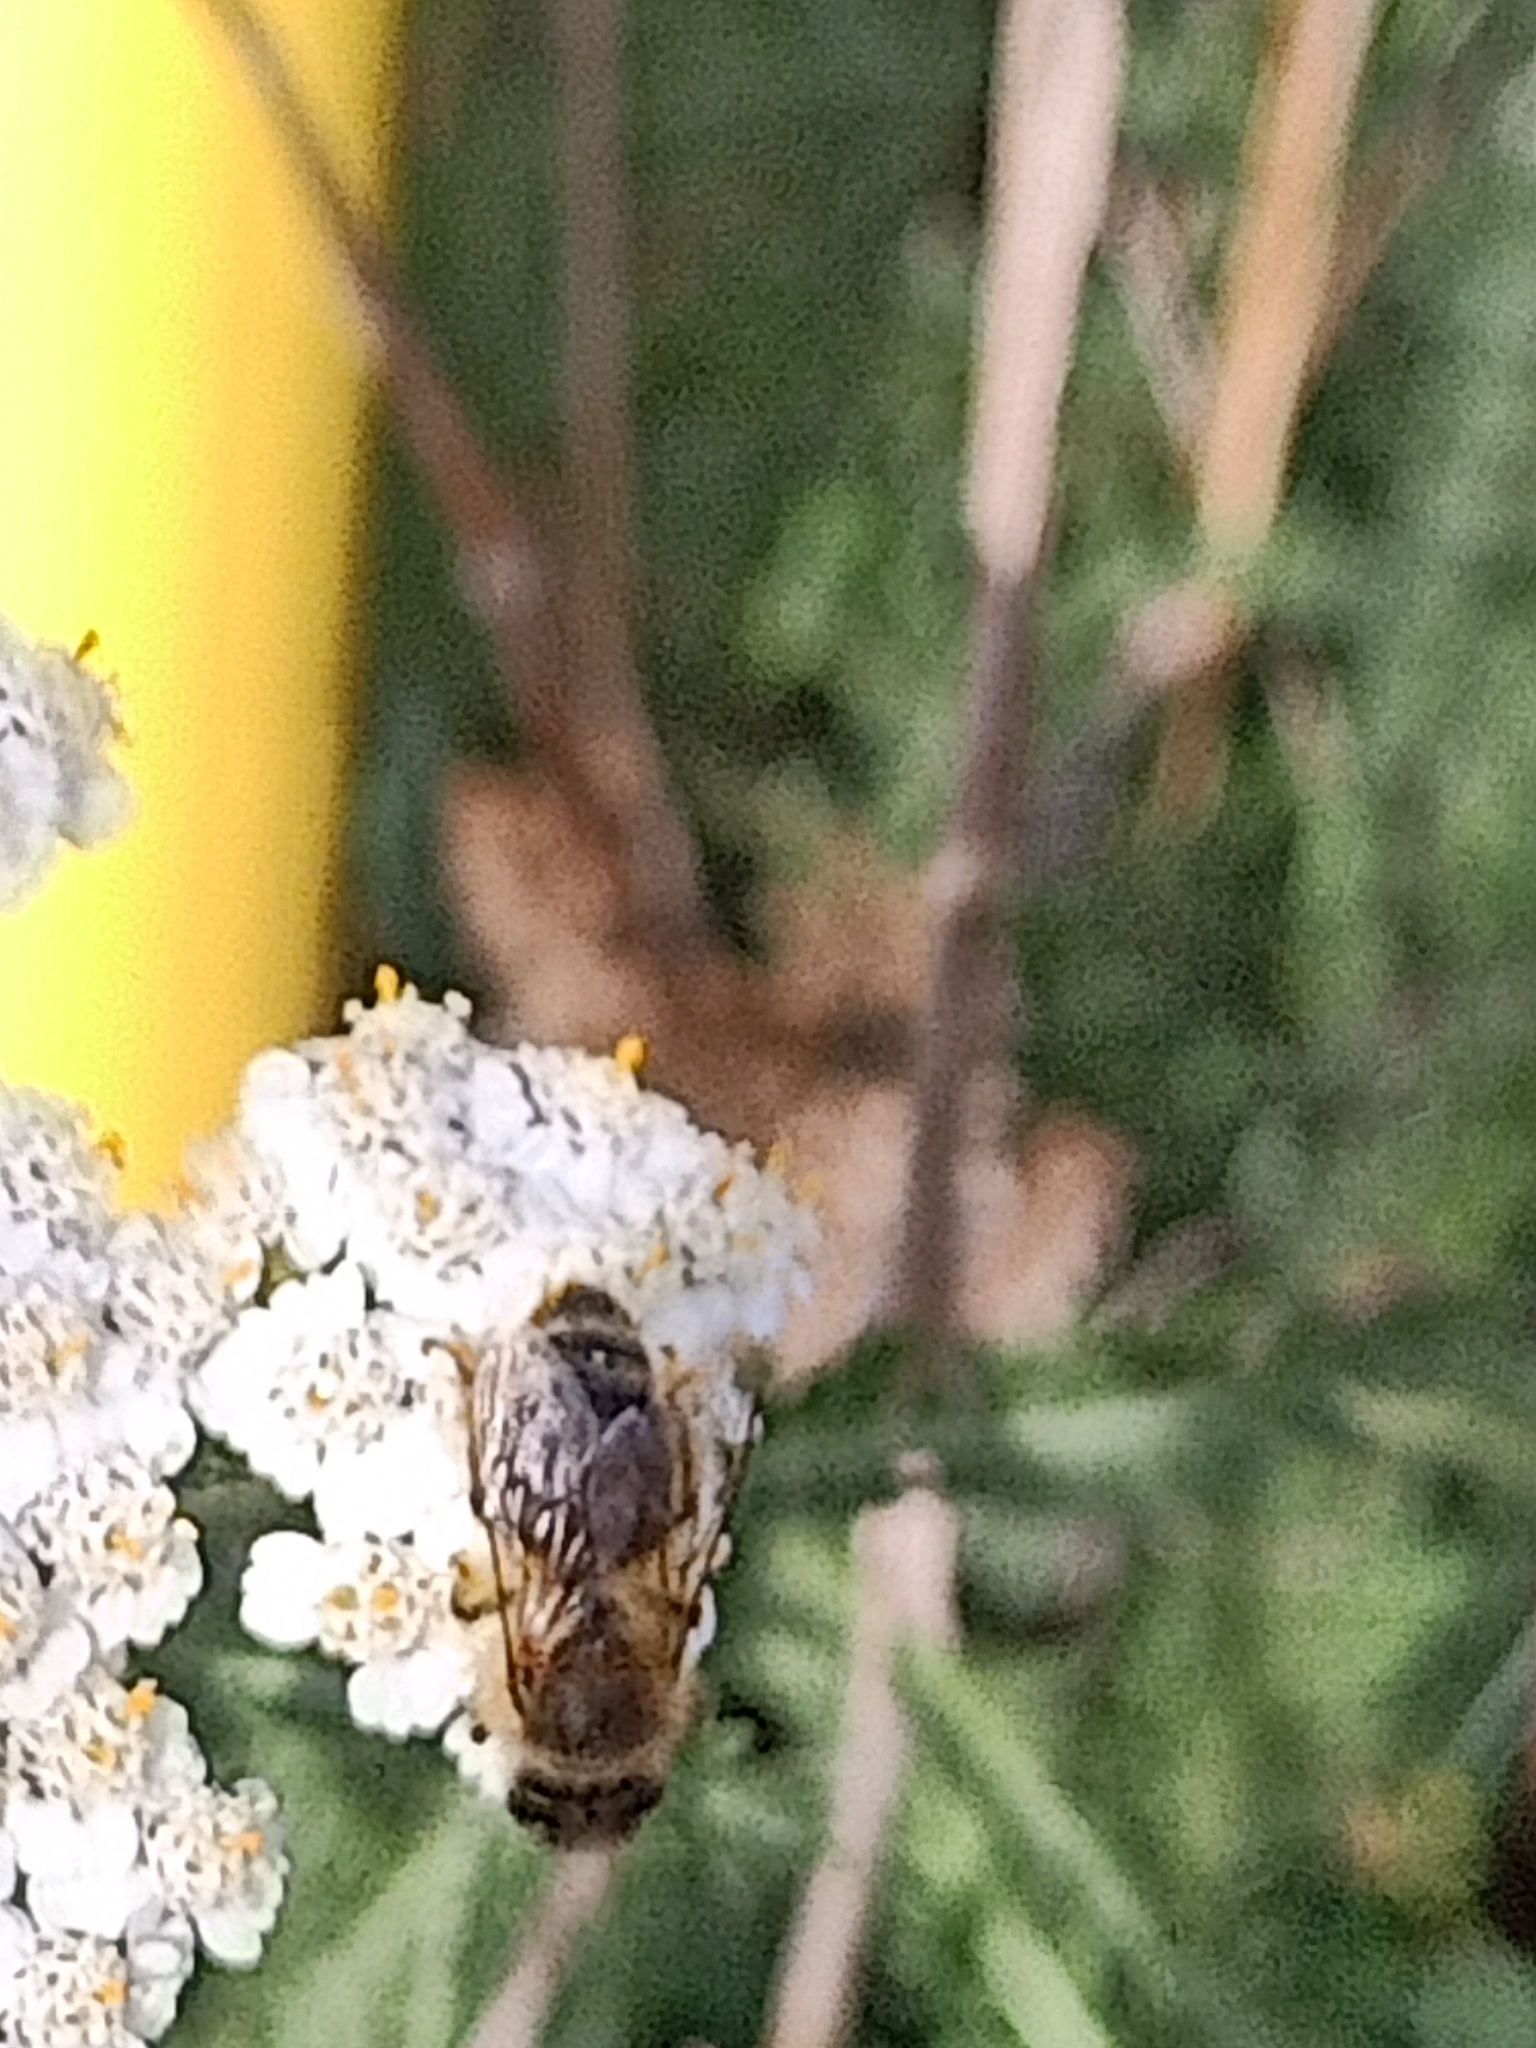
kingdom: Animalia
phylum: Arthropoda
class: Insecta
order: Hymenoptera
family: Apidae
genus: Apis
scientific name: Apis mellifera
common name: Honey bee
